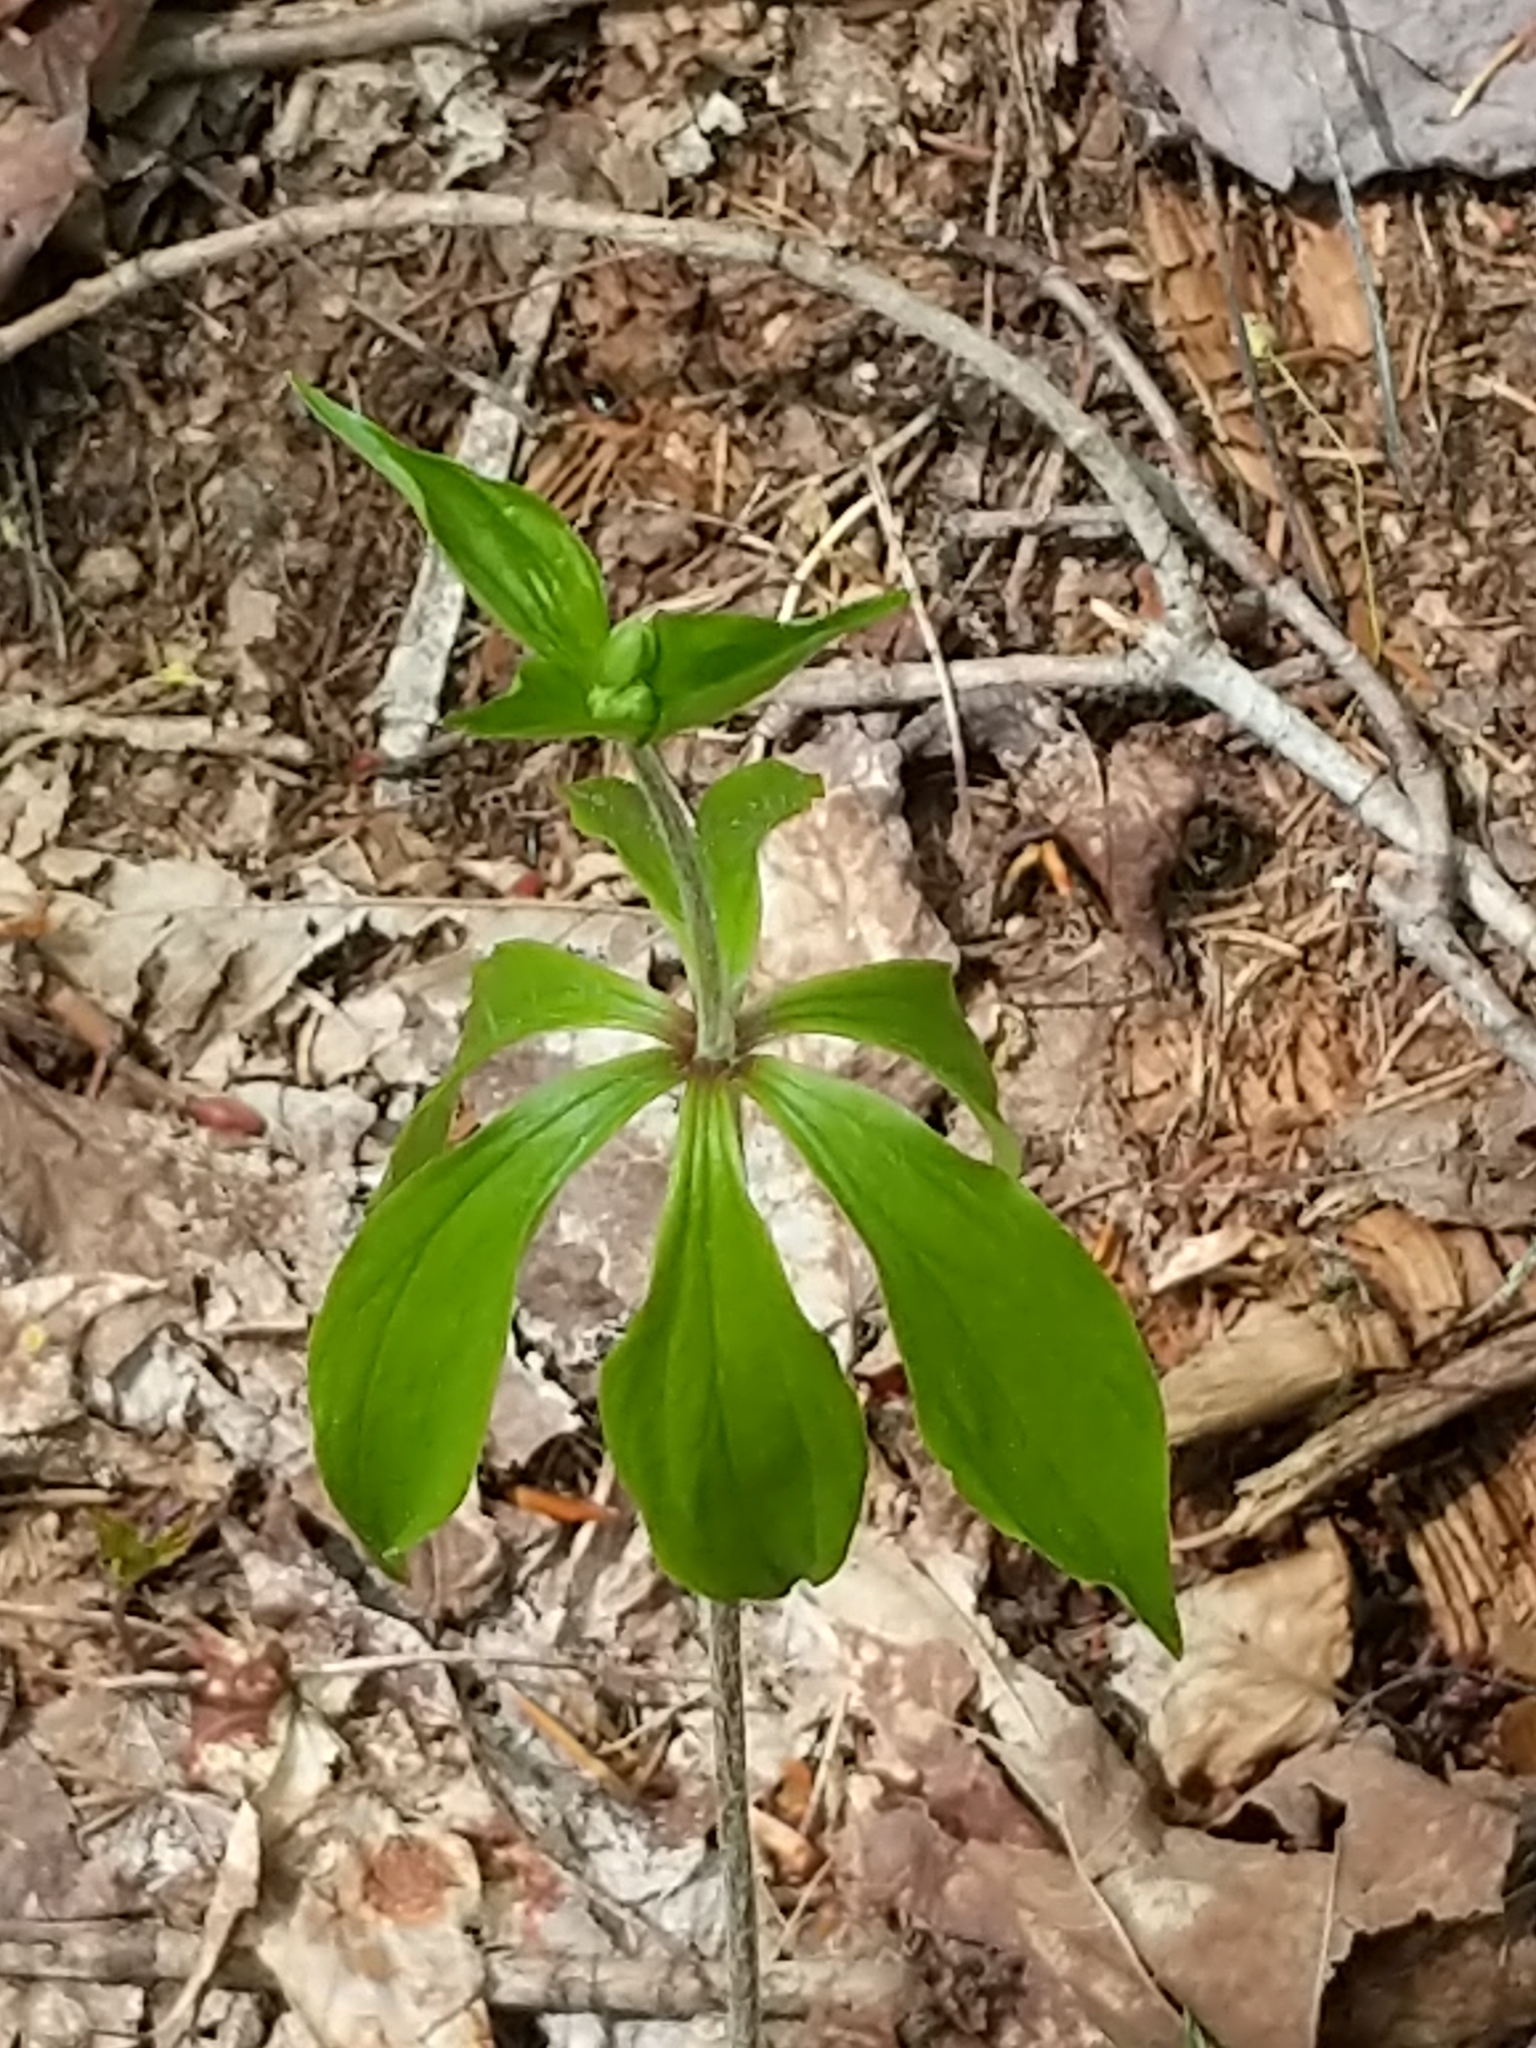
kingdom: Plantae
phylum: Tracheophyta
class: Liliopsida
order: Liliales
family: Liliaceae
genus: Medeola
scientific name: Medeola virginiana
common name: Indian cucumber-root
